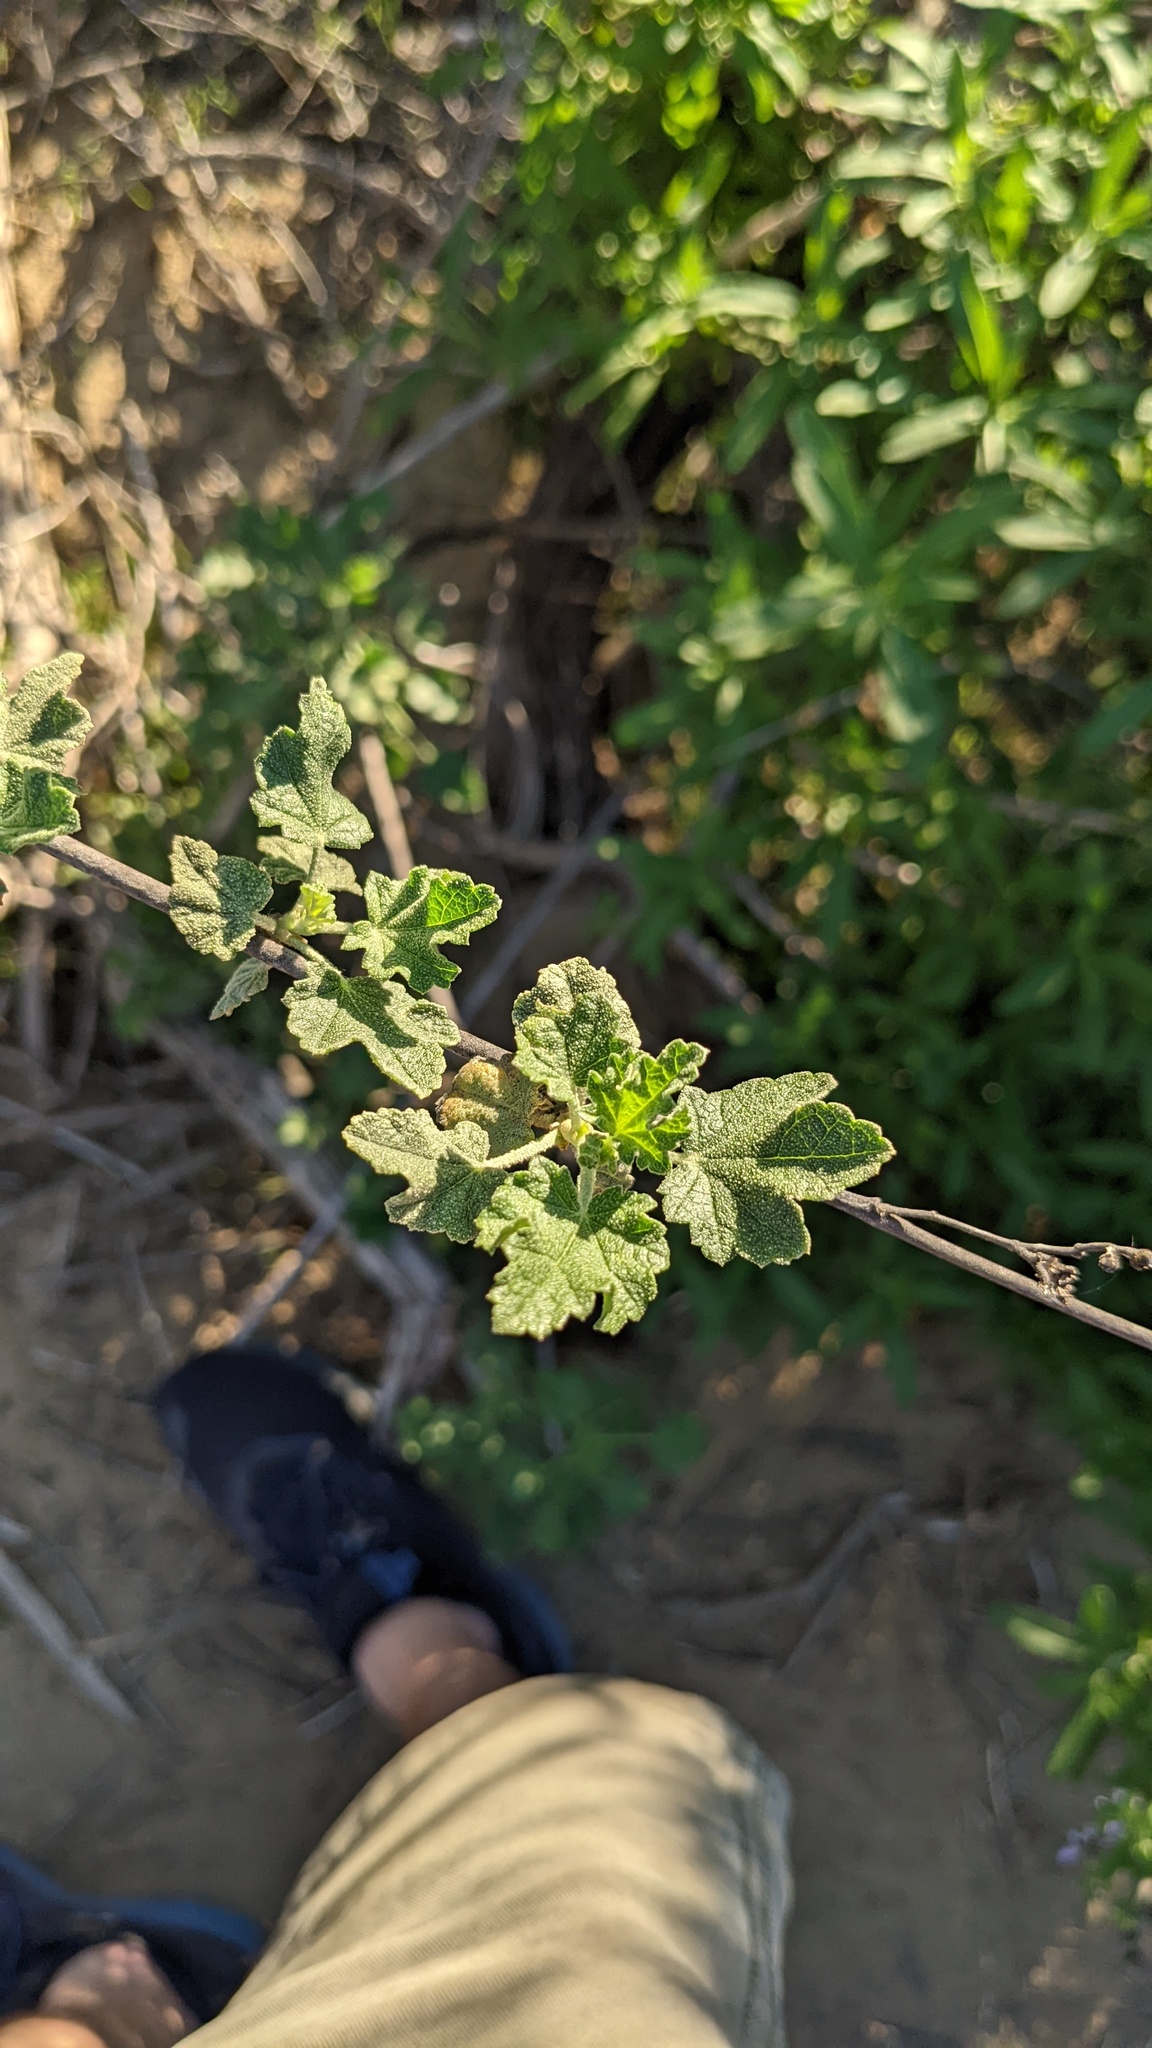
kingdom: Plantae
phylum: Tracheophyta
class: Magnoliopsida
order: Malvales
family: Malvaceae
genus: Malacothamnus
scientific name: Malacothamnus fasciculatus
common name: Sant cruz island bush-mallow
